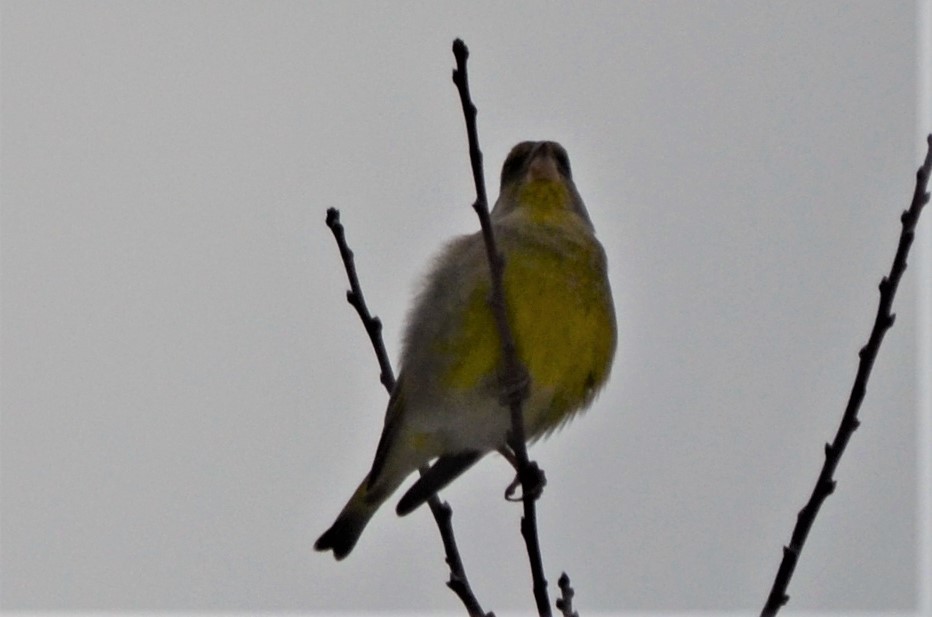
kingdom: Plantae
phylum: Tracheophyta
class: Liliopsida
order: Poales
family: Poaceae
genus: Chloris
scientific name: Chloris chloris
